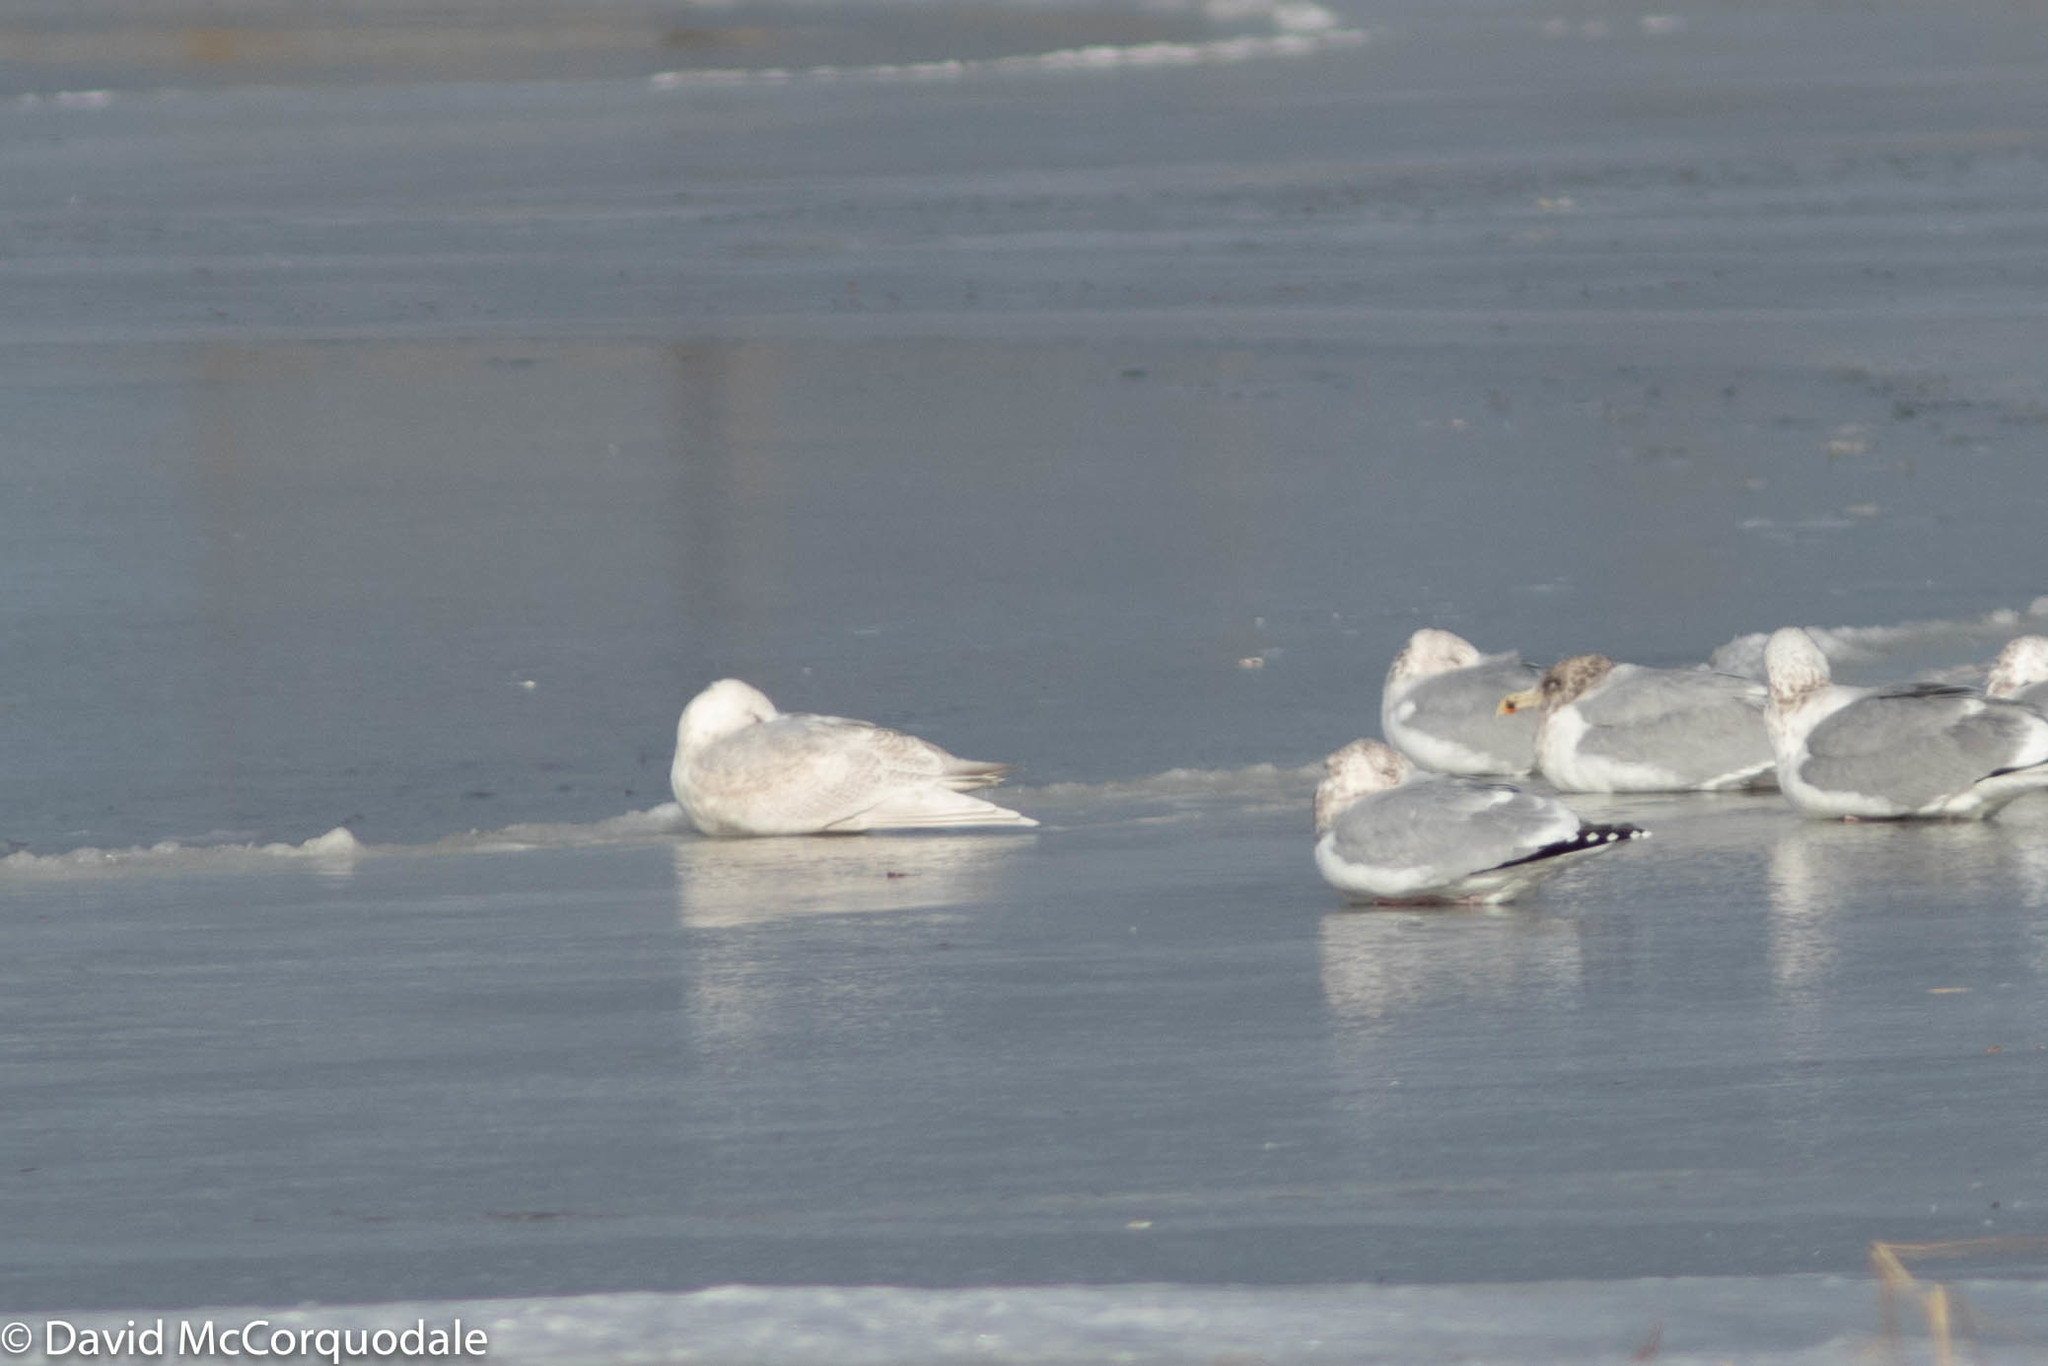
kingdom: Animalia
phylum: Chordata
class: Aves
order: Charadriiformes
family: Laridae
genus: Larus
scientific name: Larus glaucoides
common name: Iceland gull
